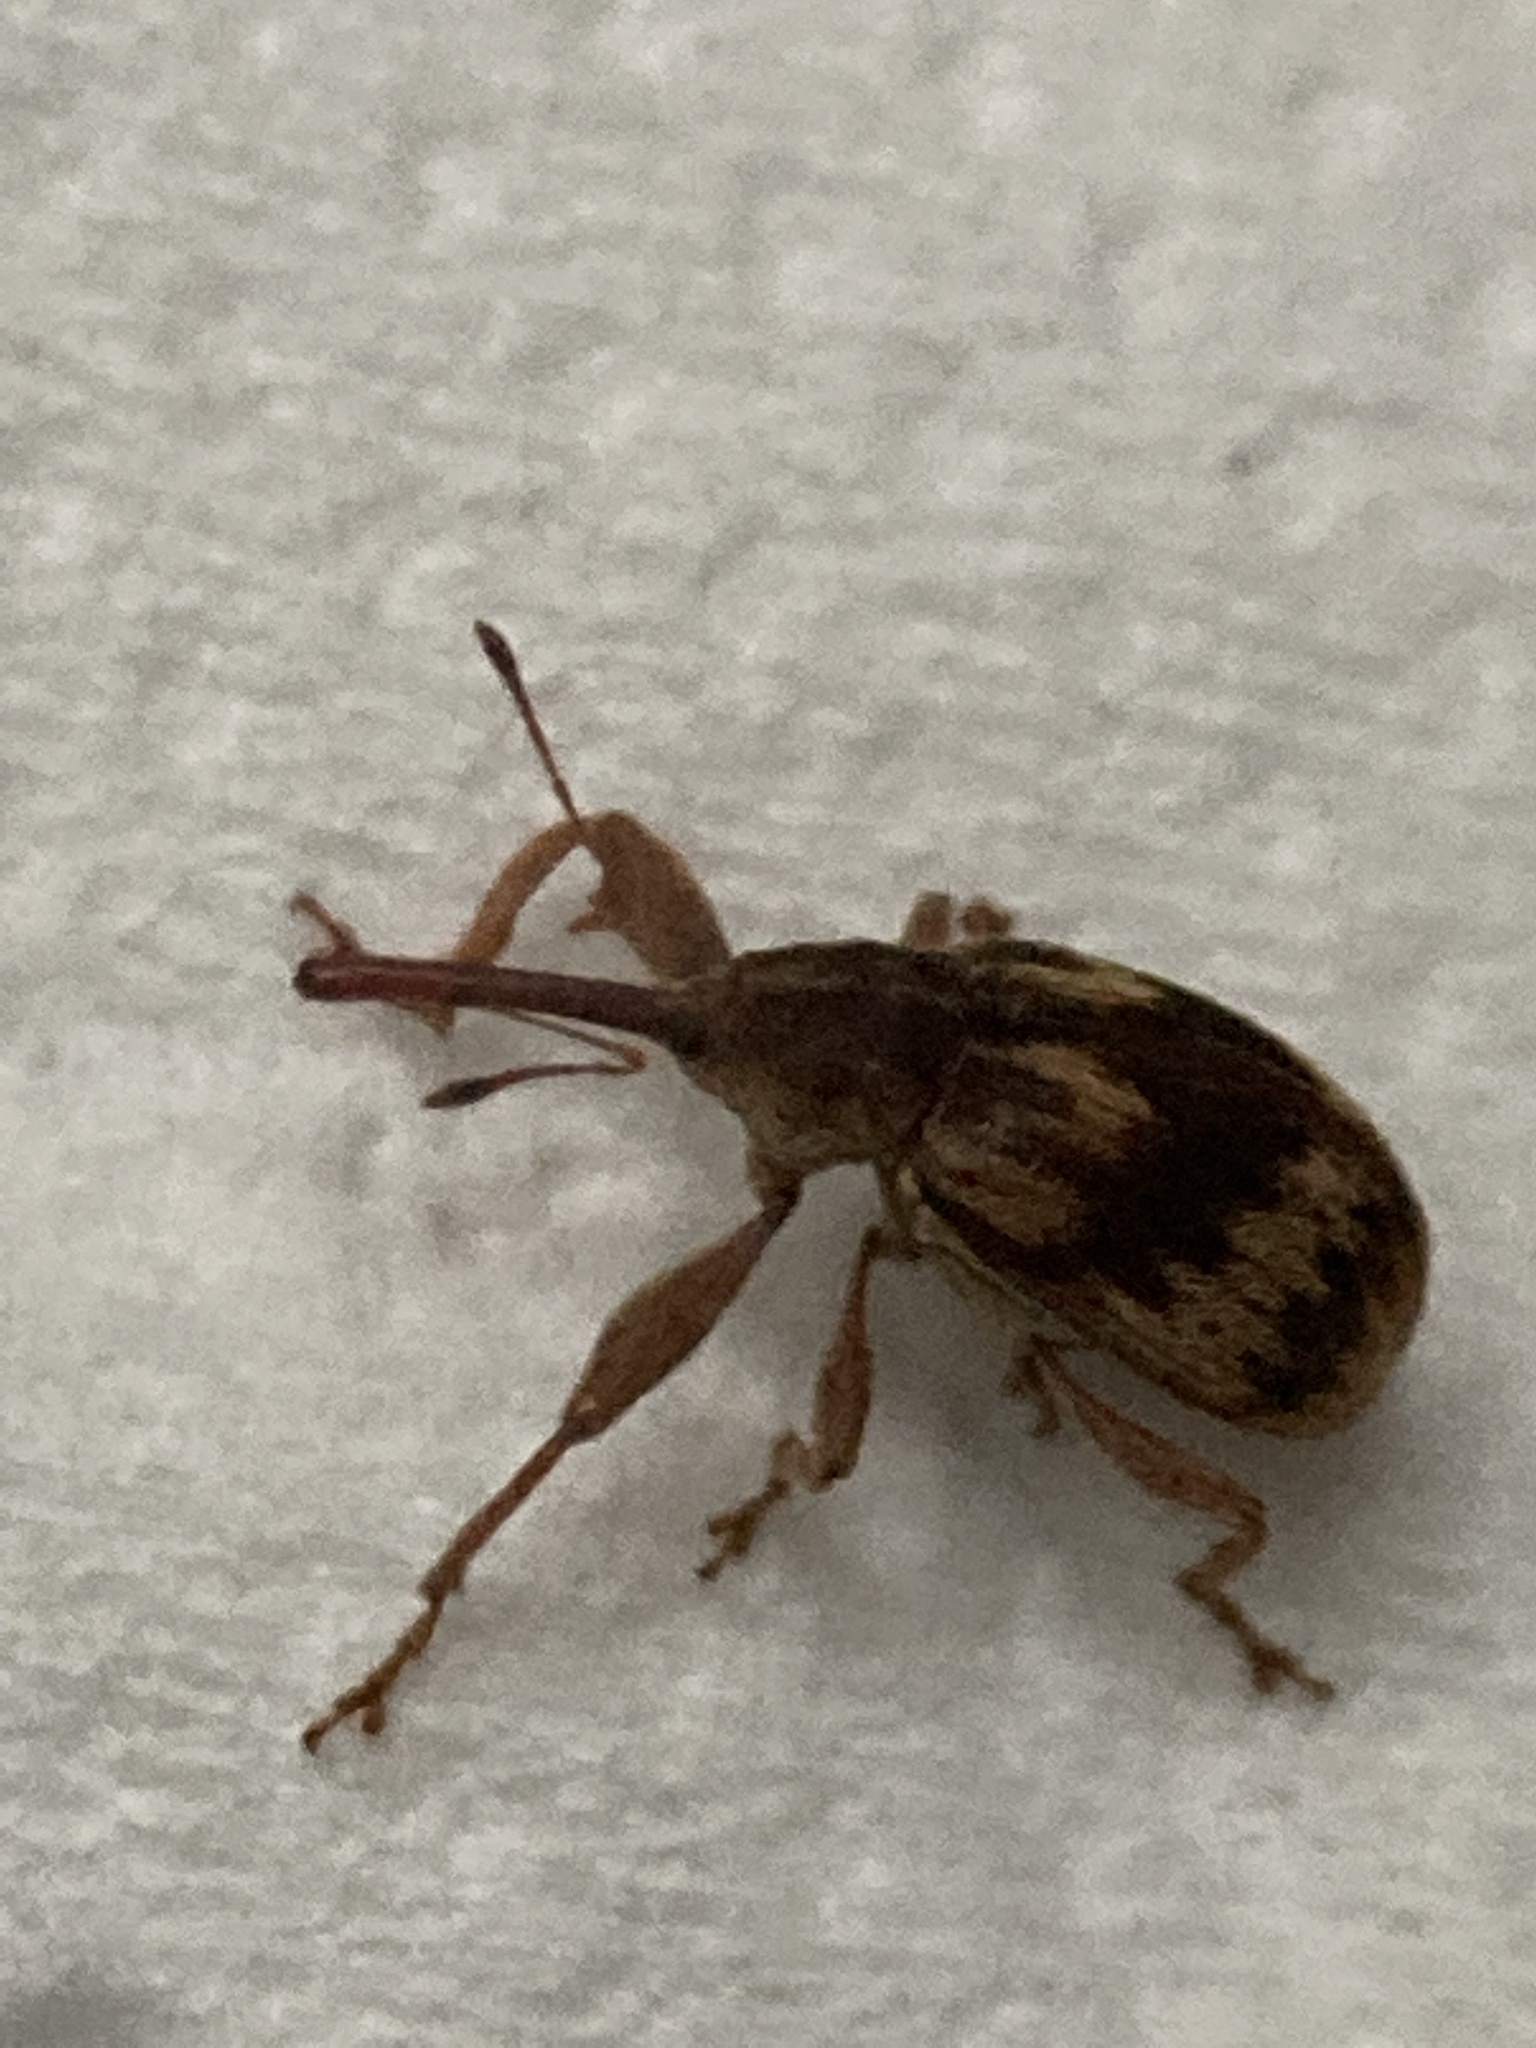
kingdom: Animalia
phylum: Arthropoda
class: Insecta
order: Coleoptera
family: Curculionidae
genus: Anthonomus
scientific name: Anthonomus rectirostris
